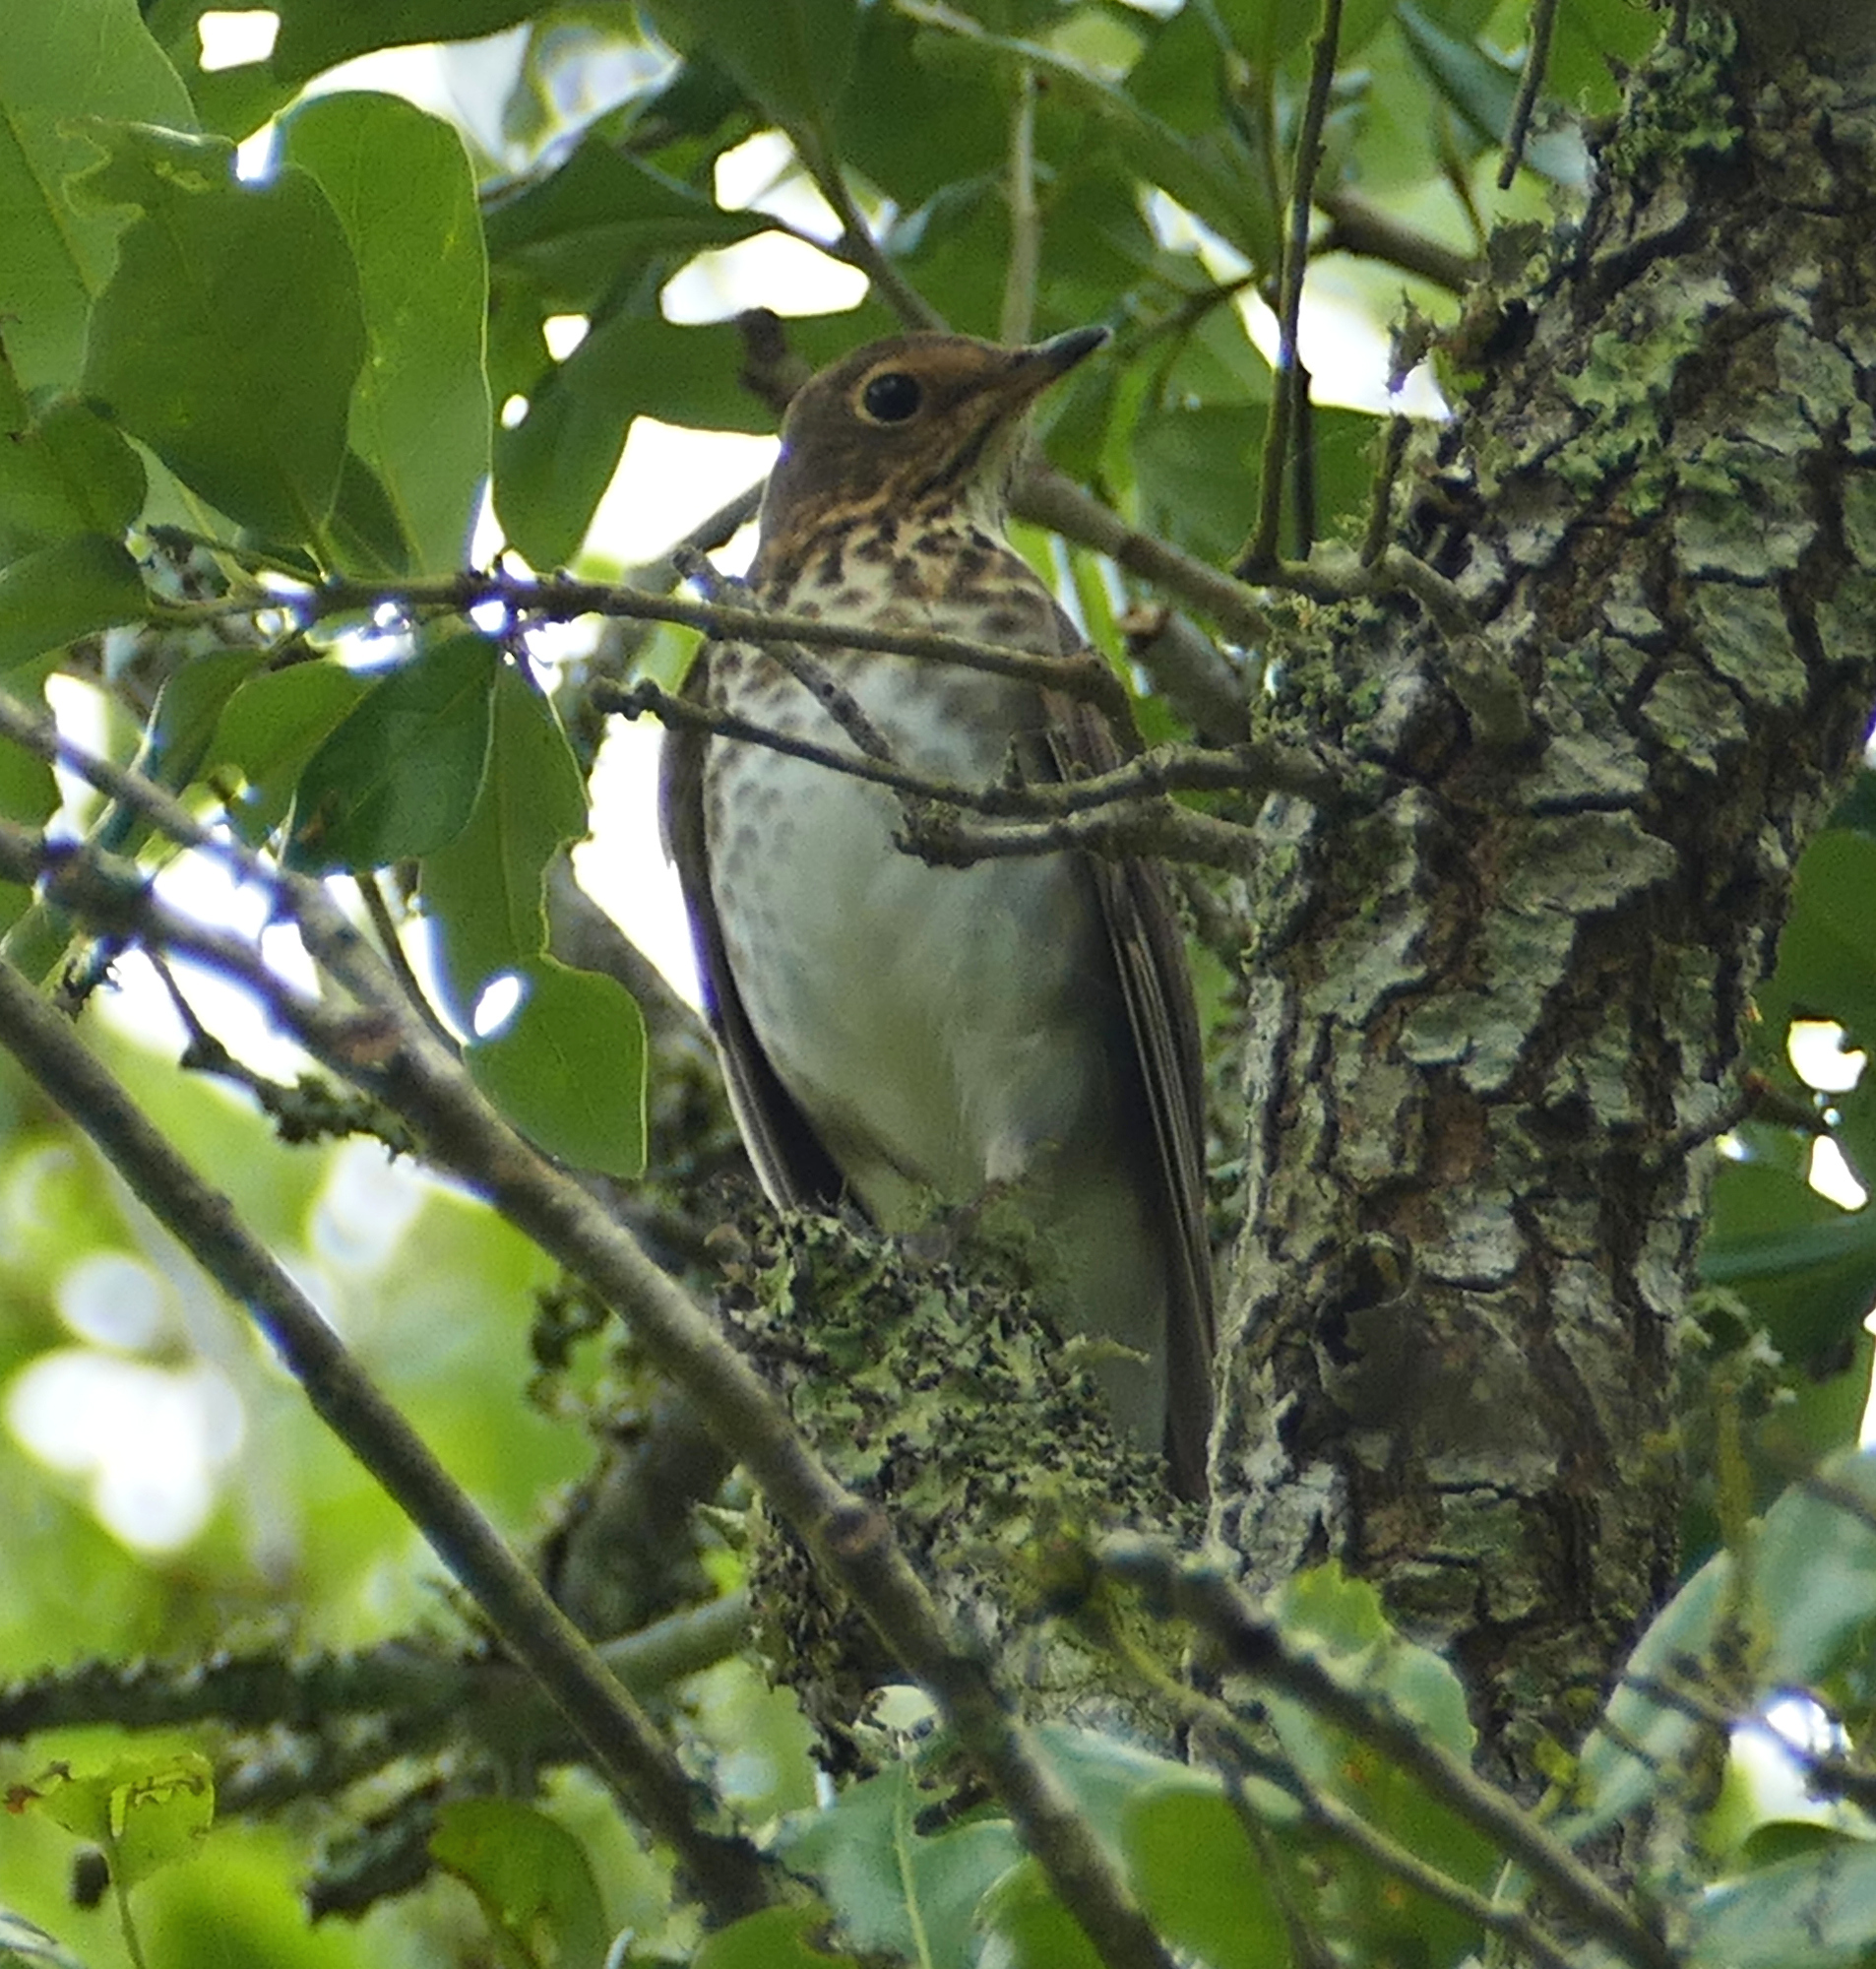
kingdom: Animalia
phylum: Chordata
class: Aves
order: Passeriformes
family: Turdidae
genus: Catharus
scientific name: Catharus ustulatus
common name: Swainson's thrush
